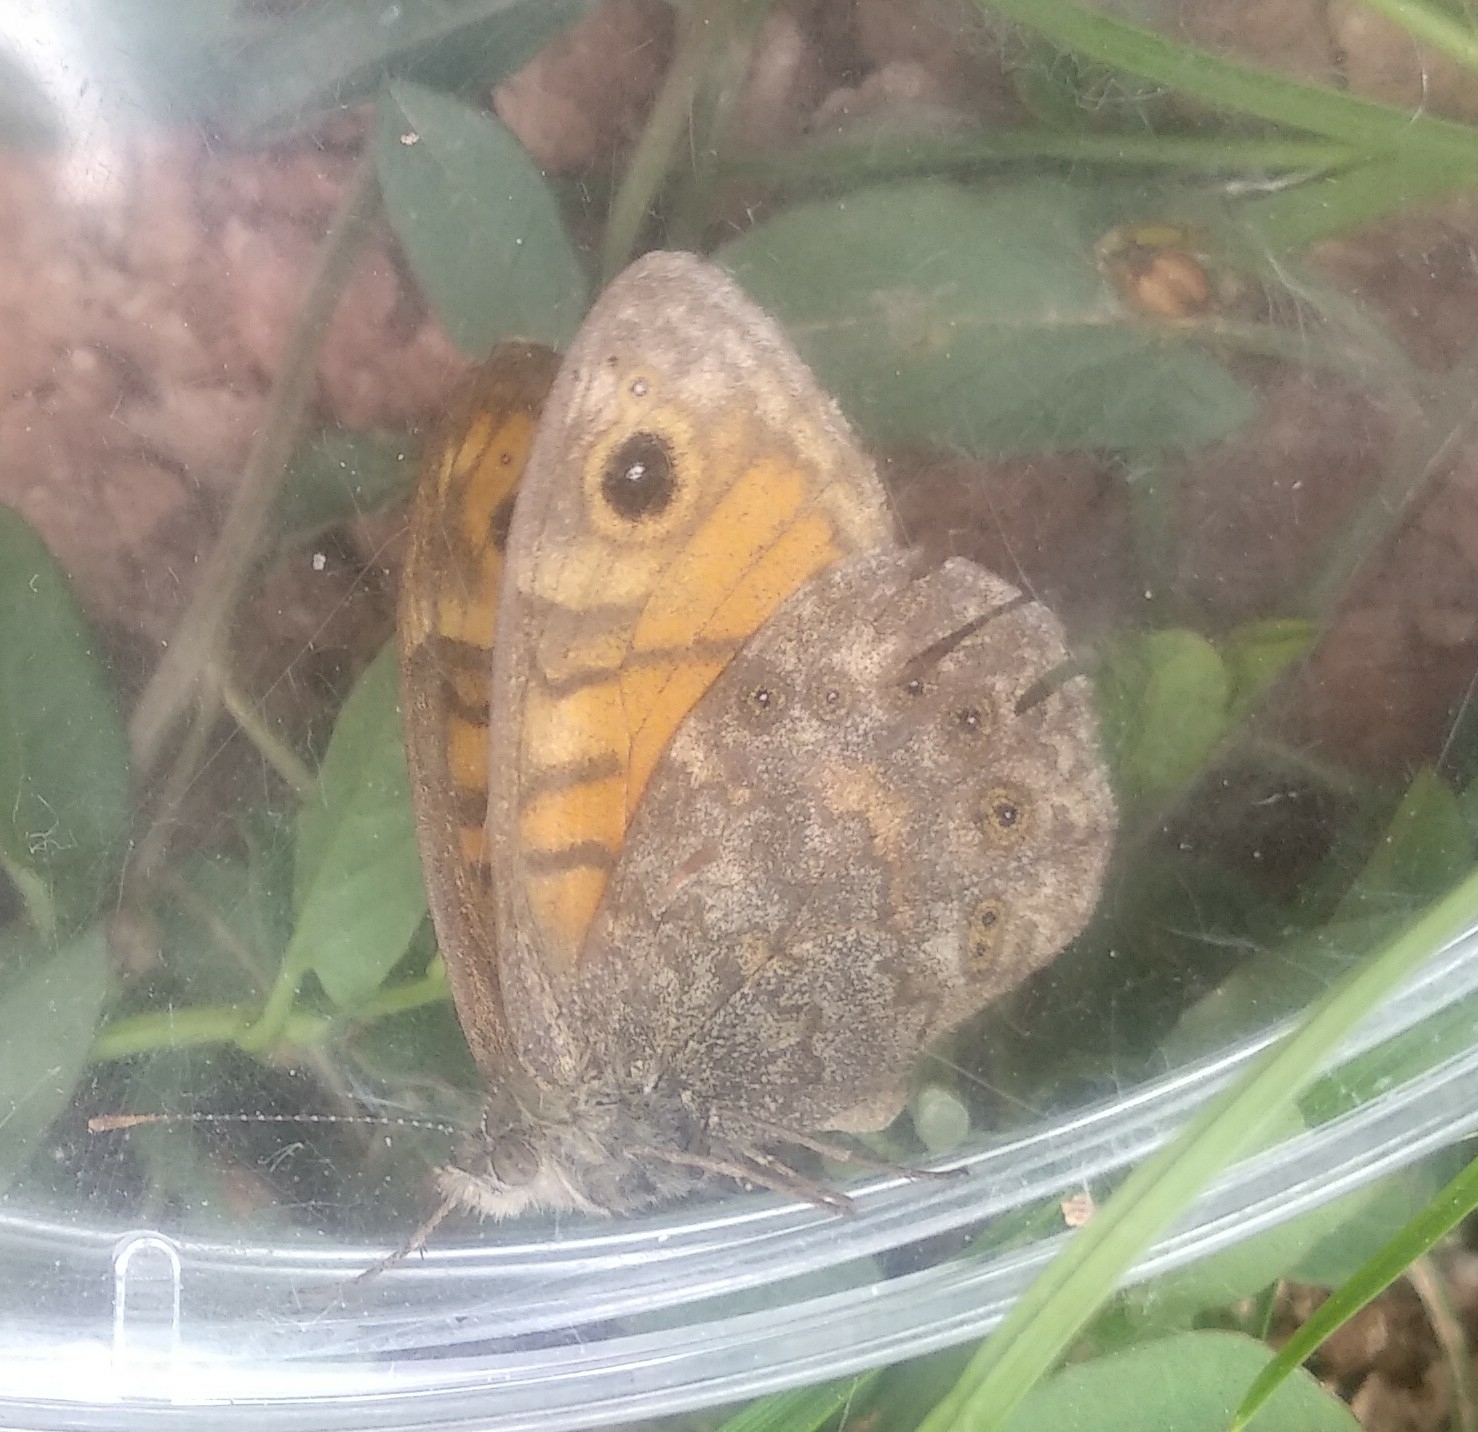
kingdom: Animalia
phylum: Arthropoda
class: Insecta
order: Lepidoptera
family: Nymphalidae
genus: Pararge
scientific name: Pararge Lasiommata megera
